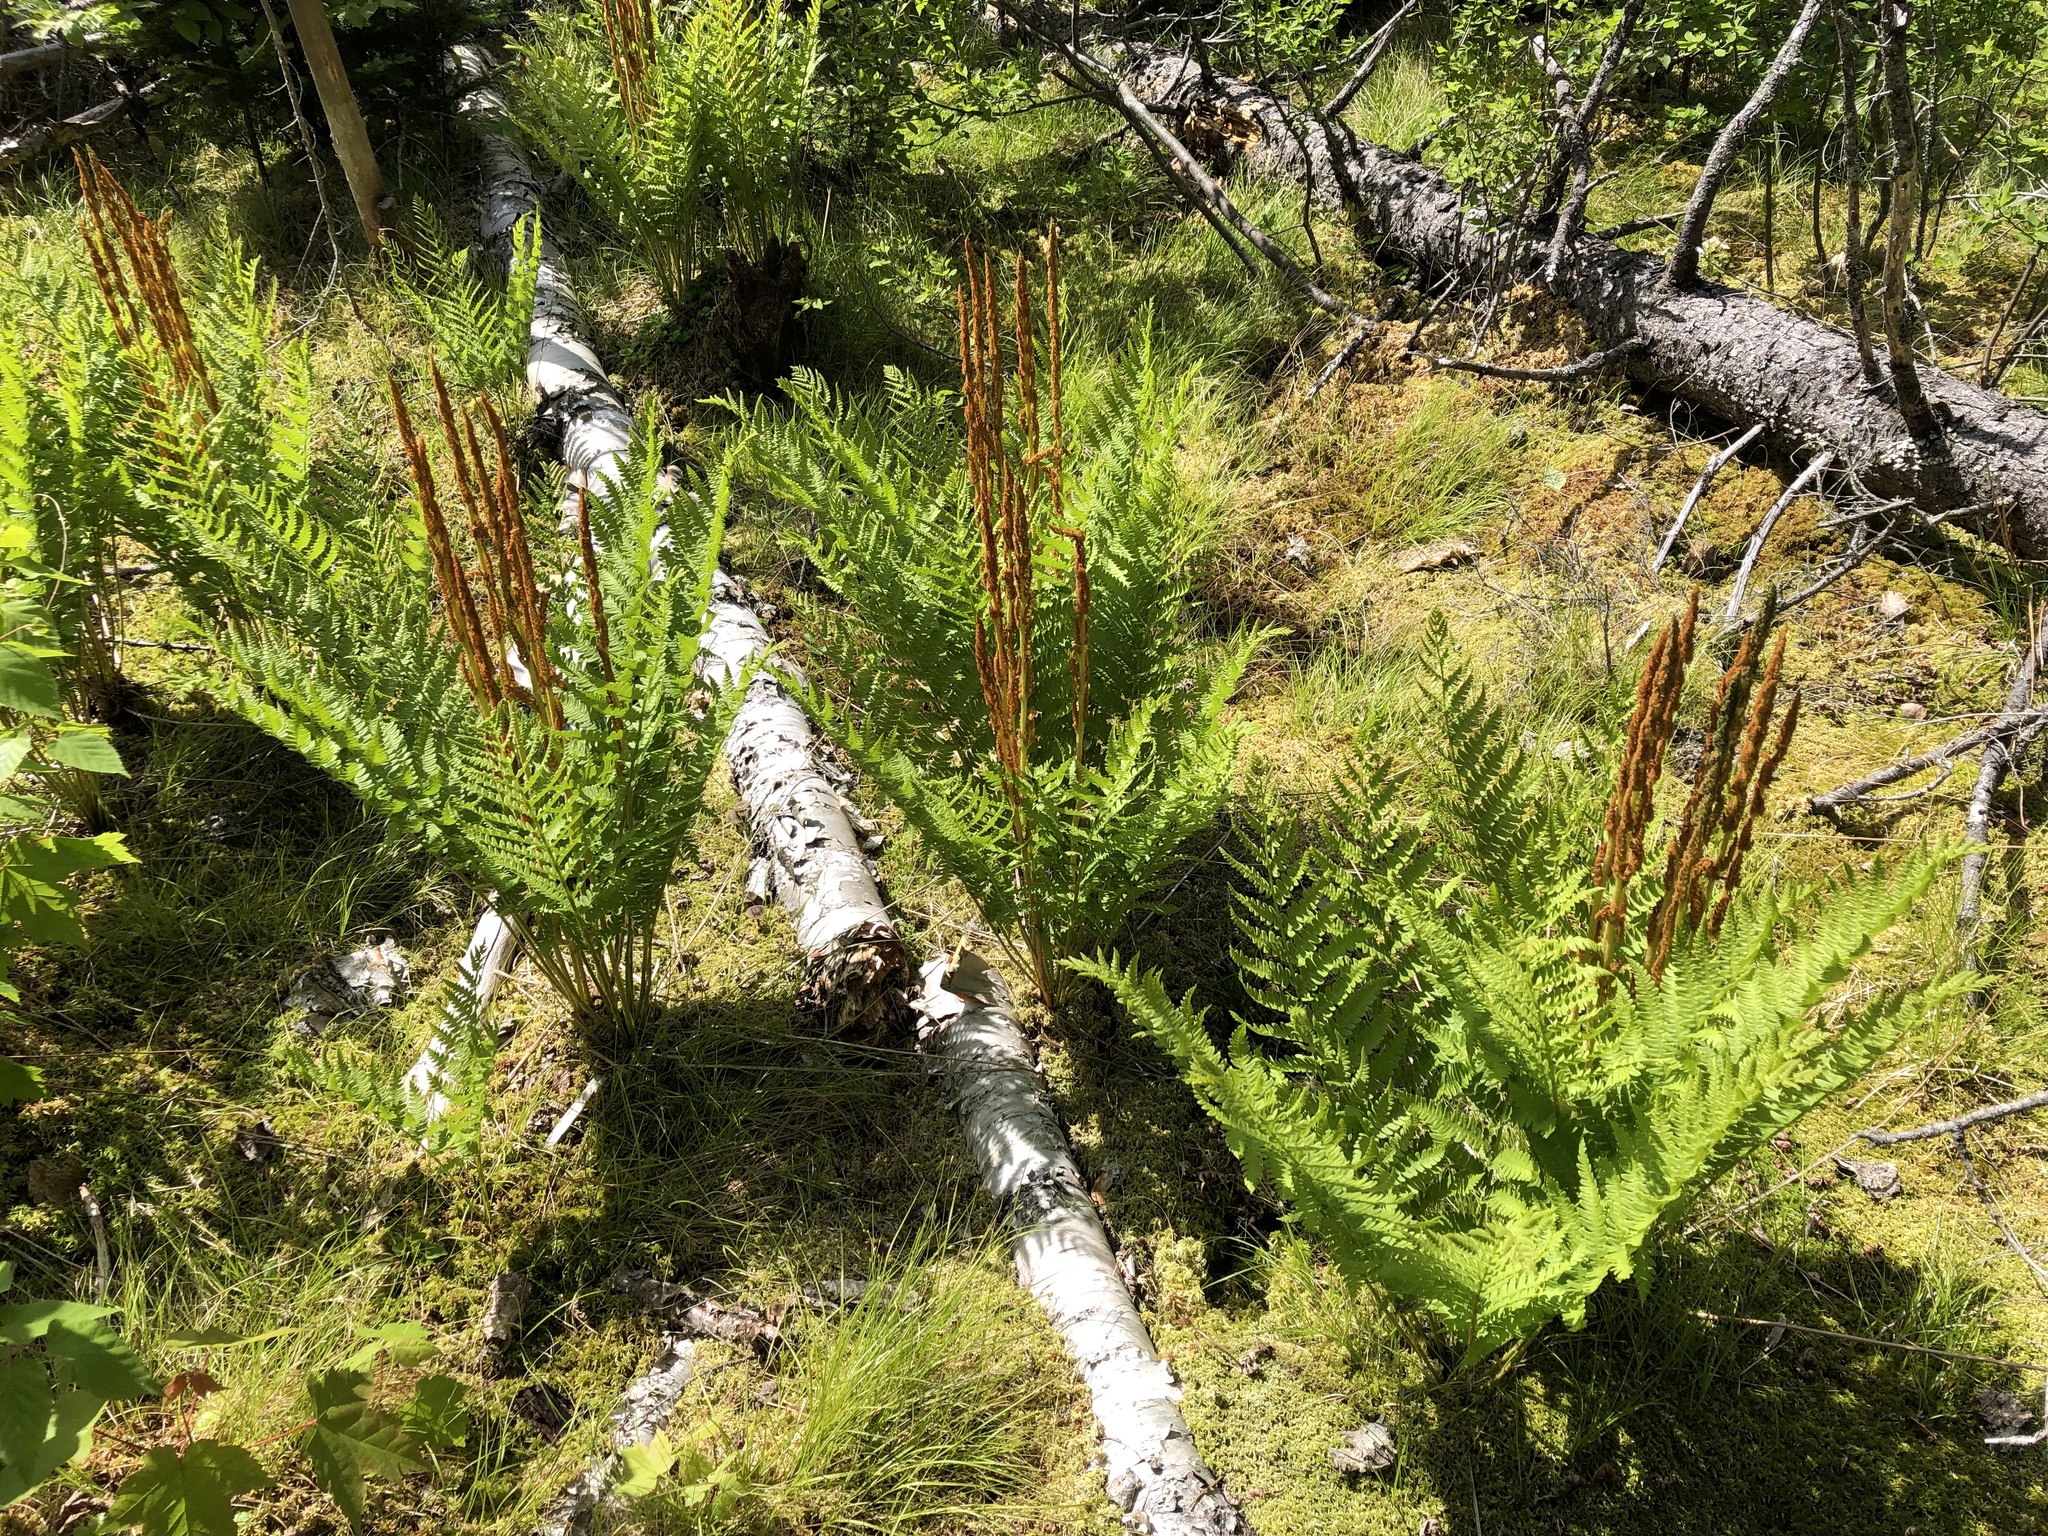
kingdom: Plantae
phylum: Tracheophyta
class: Polypodiopsida
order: Osmundales
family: Osmundaceae
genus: Osmundastrum
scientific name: Osmundastrum cinnamomeum
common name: Cinnamon fern
